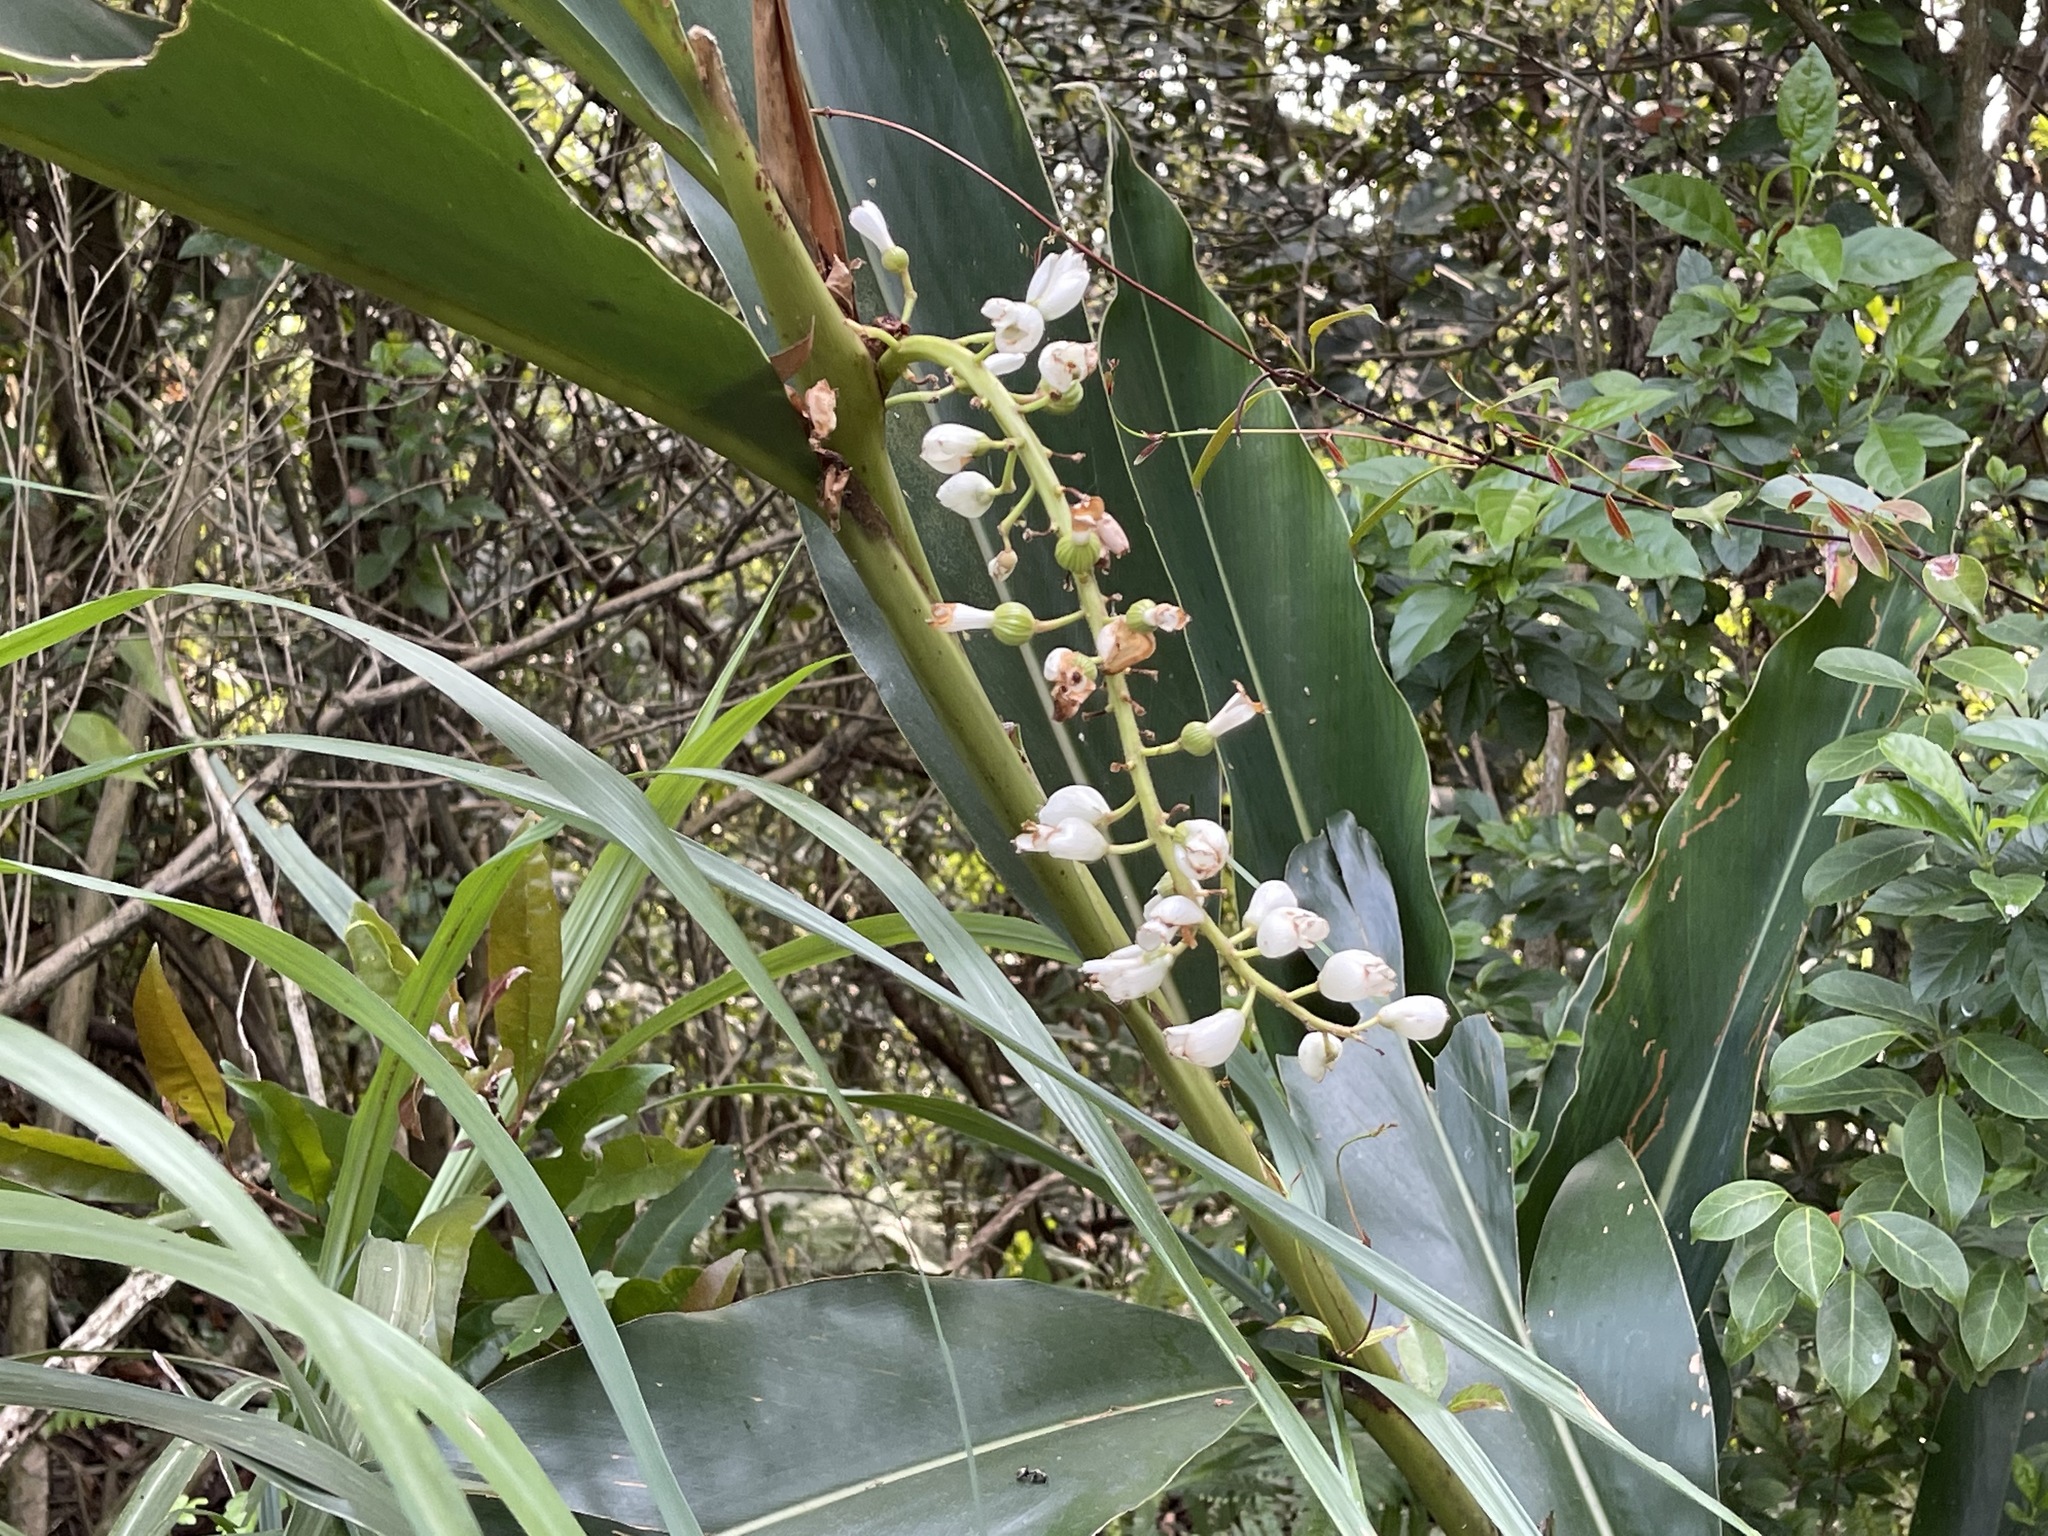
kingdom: Plantae
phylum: Tracheophyta
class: Liliopsida
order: Zingiberales
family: Zingiberaceae
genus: Alpinia
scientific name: Alpinia zerumbet
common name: Shellplant
